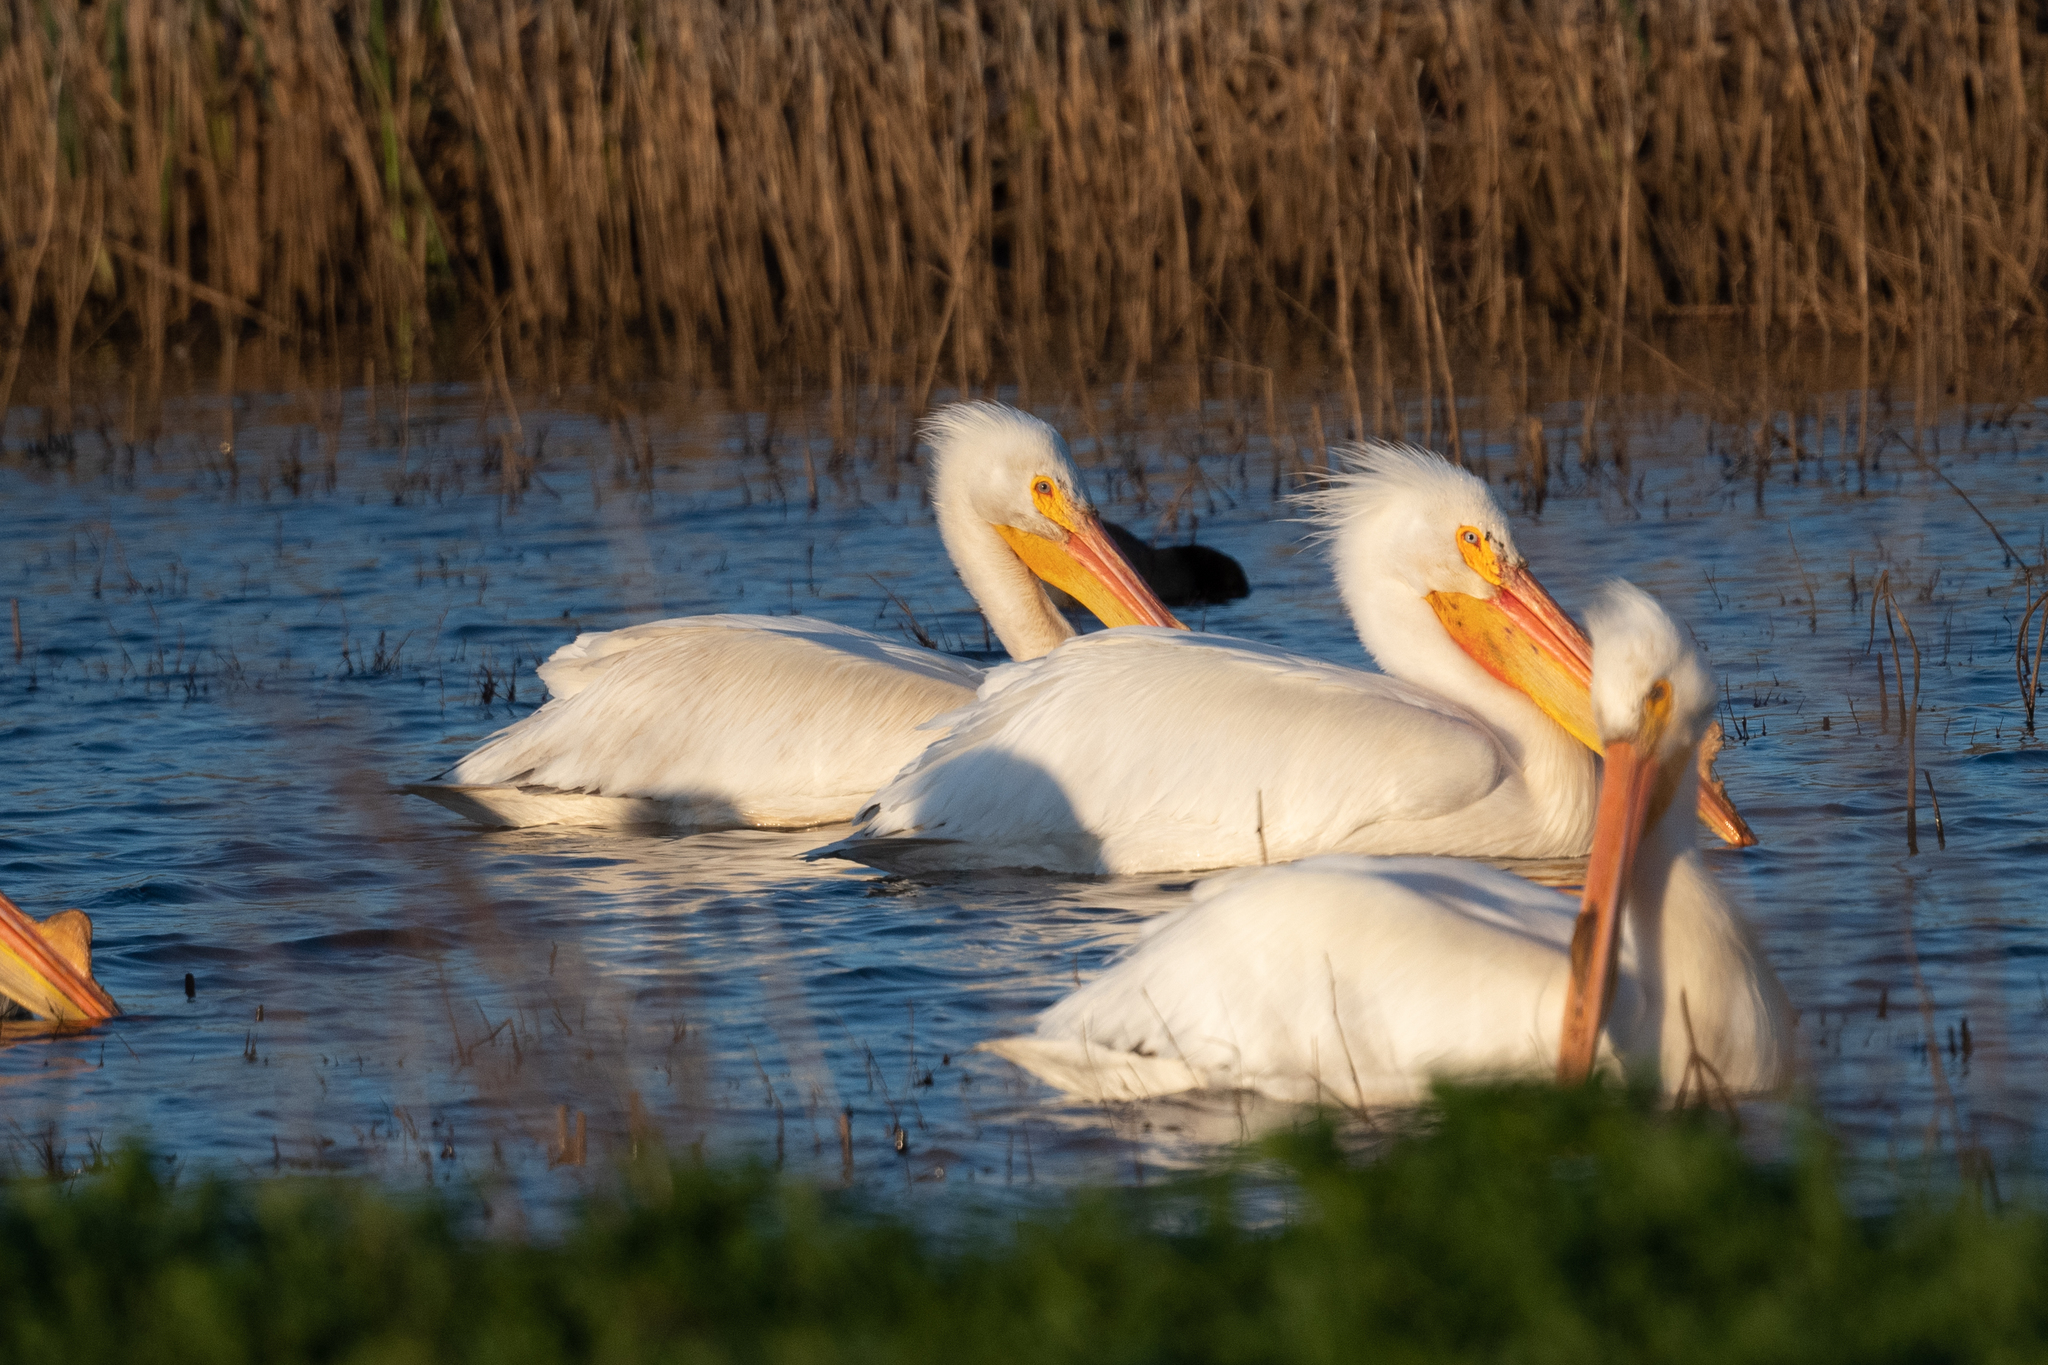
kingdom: Animalia
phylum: Chordata
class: Aves
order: Pelecaniformes
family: Pelecanidae
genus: Pelecanus
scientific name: Pelecanus erythrorhynchos
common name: American white pelican
